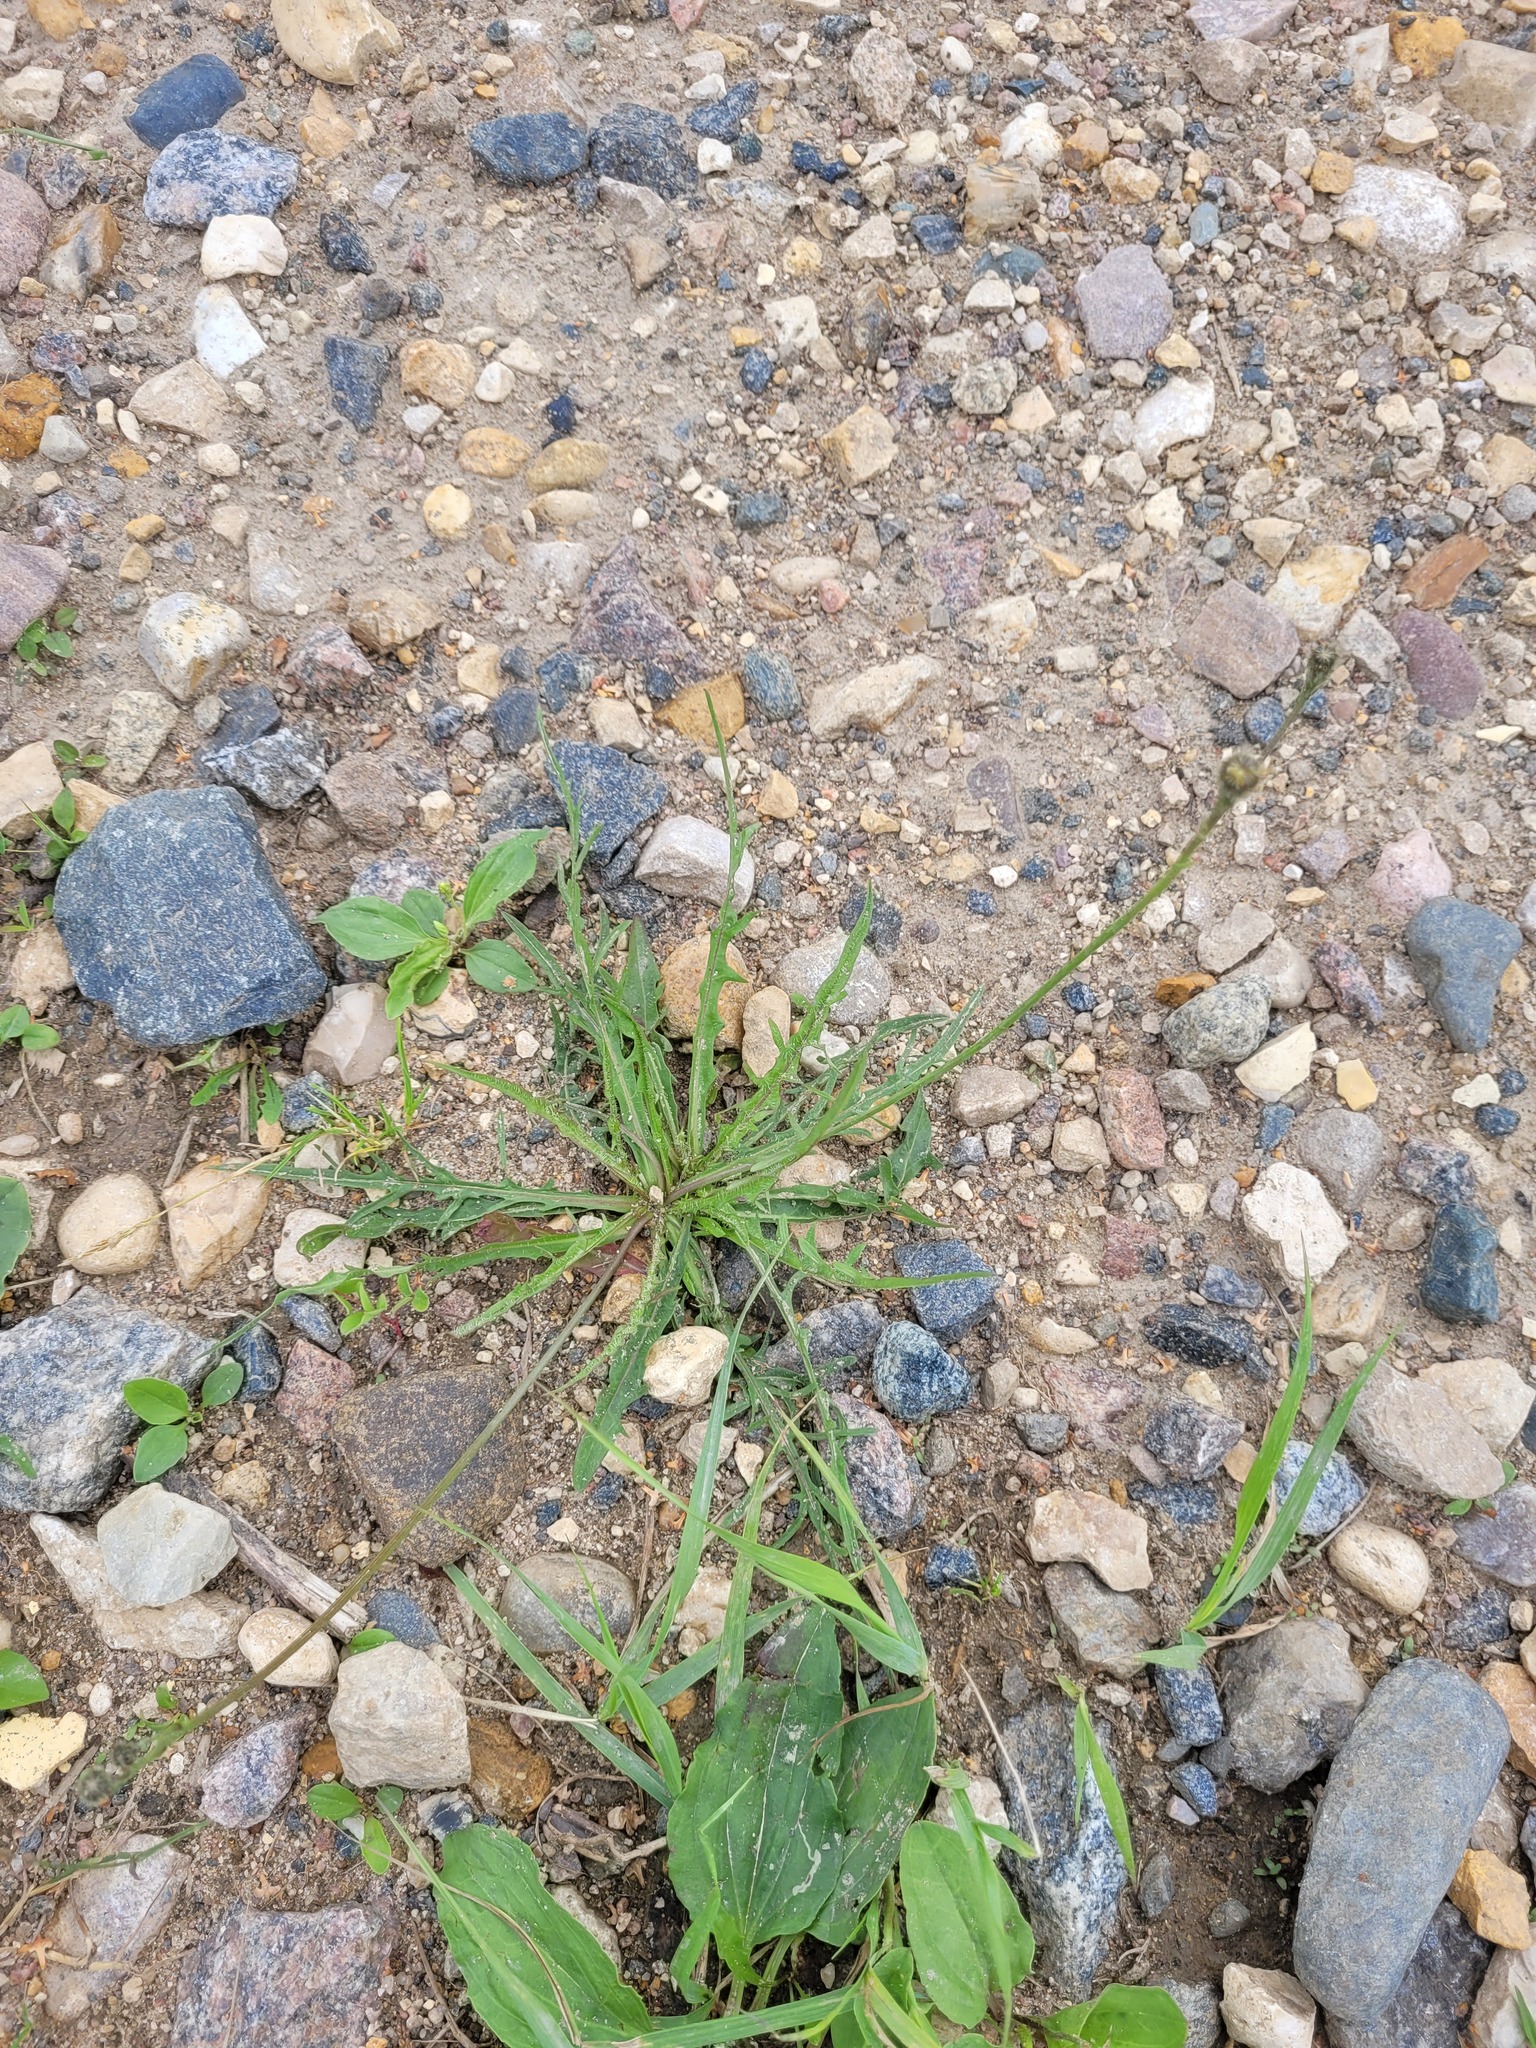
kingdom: Plantae
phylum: Tracheophyta
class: Magnoliopsida
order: Asterales
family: Asteraceae
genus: Scorzoneroides
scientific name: Scorzoneroides autumnalis
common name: Autumn hawkbit
